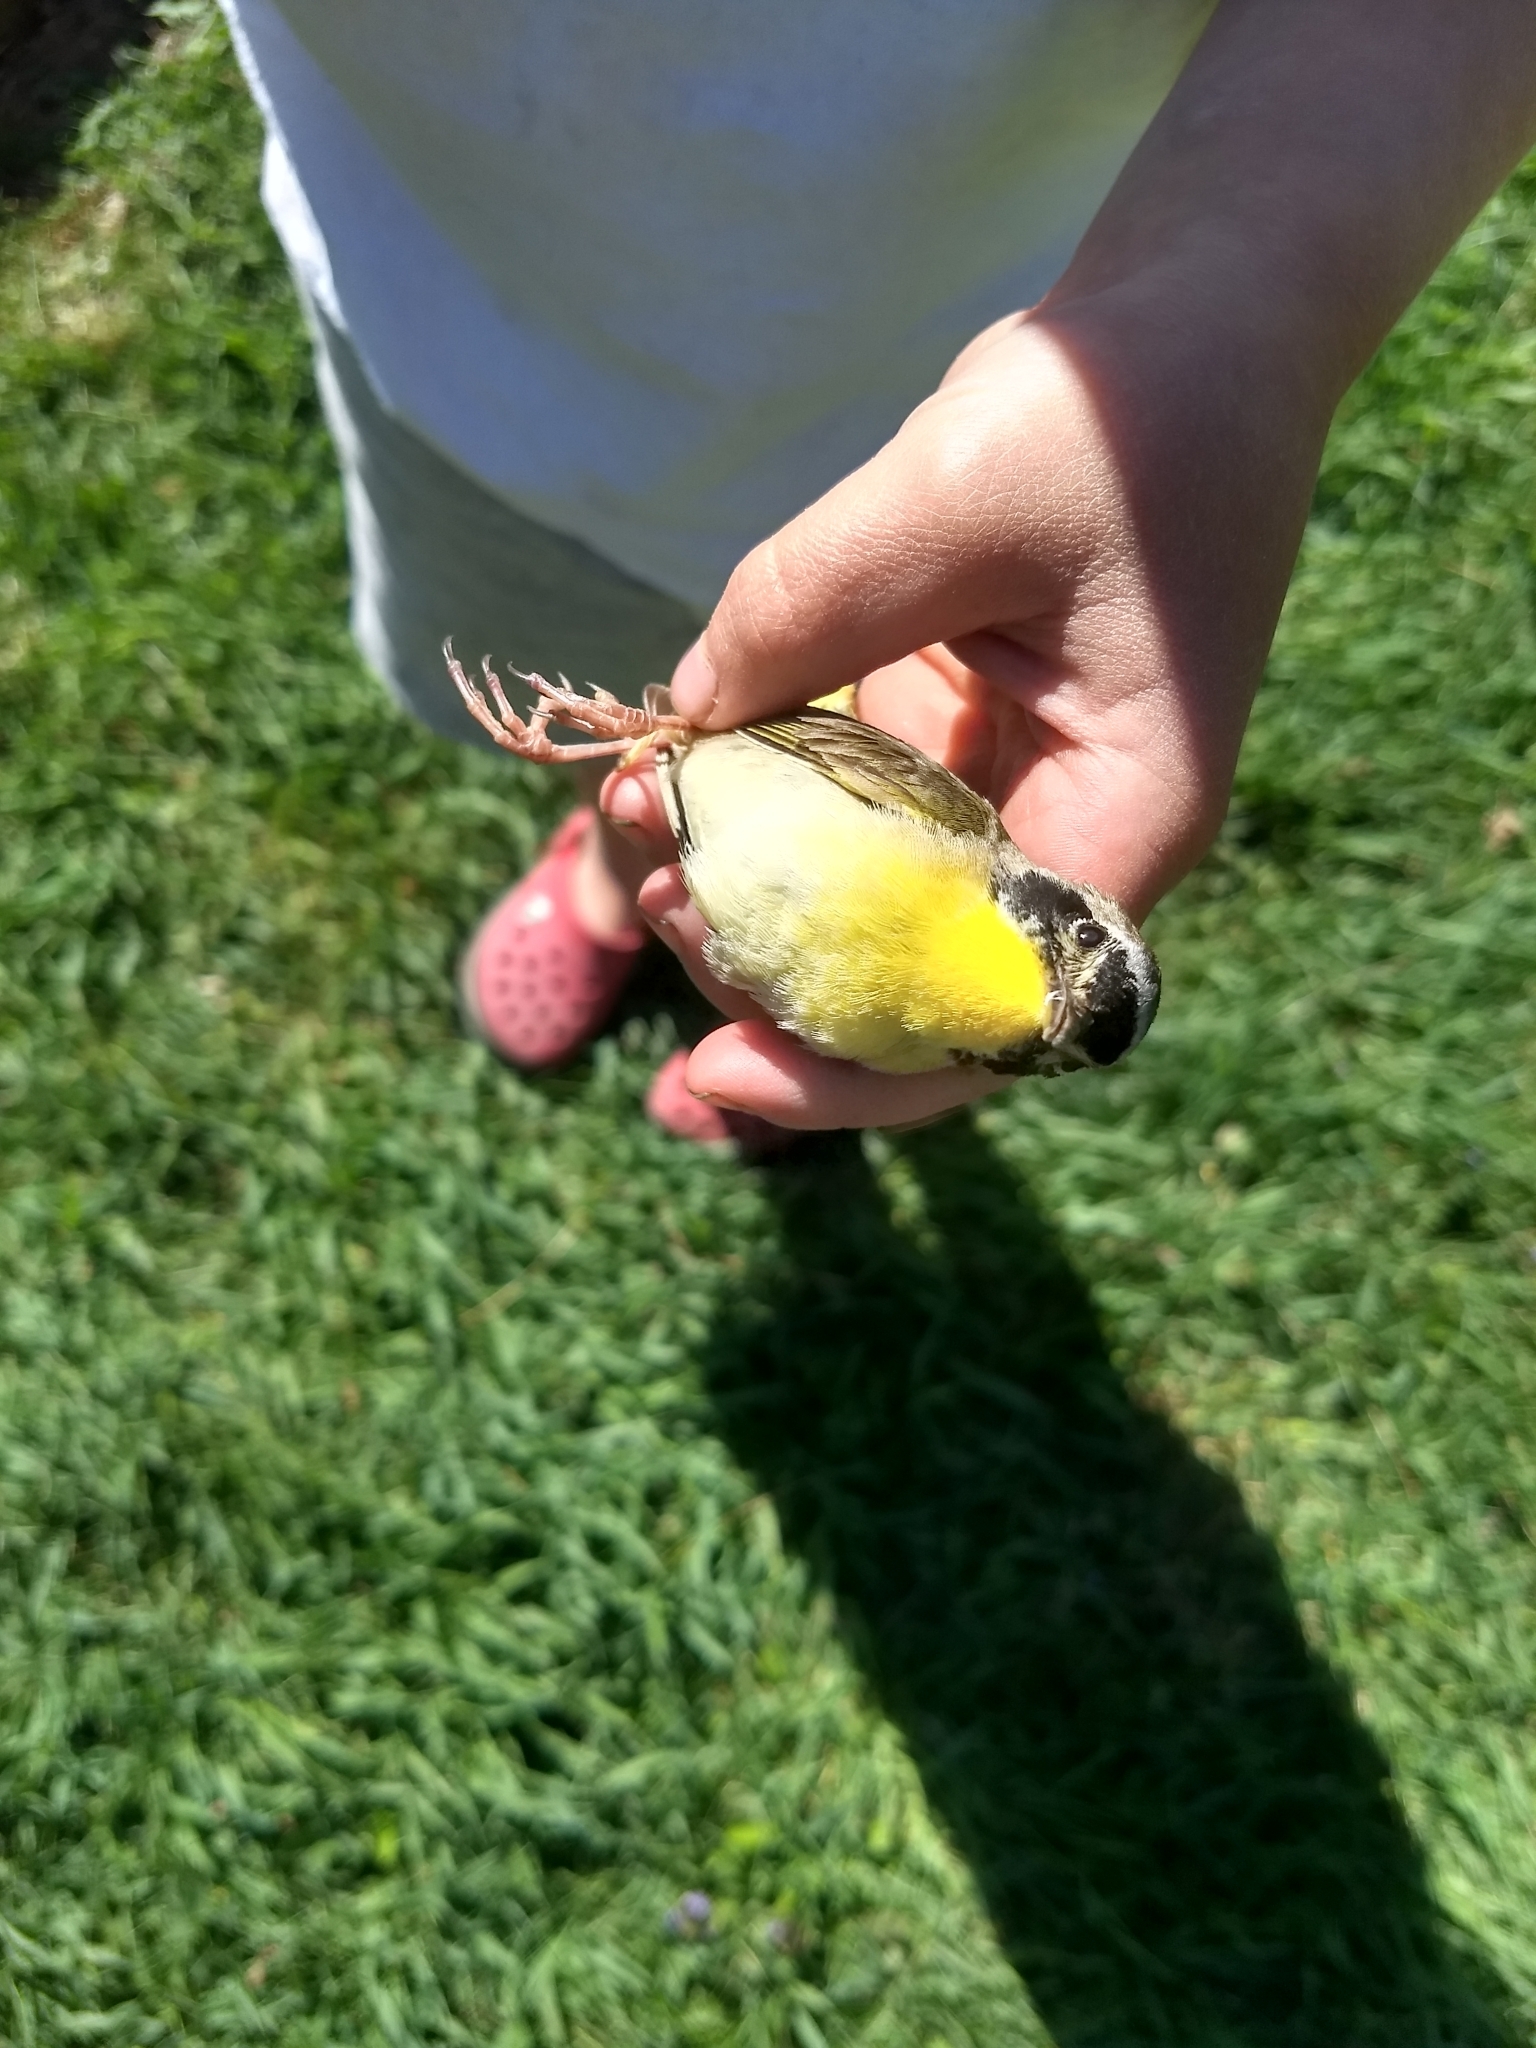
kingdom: Animalia
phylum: Chordata
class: Aves
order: Passeriformes
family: Parulidae
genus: Geothlypis
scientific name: Geothlypis trichas
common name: Common yellowthroat
